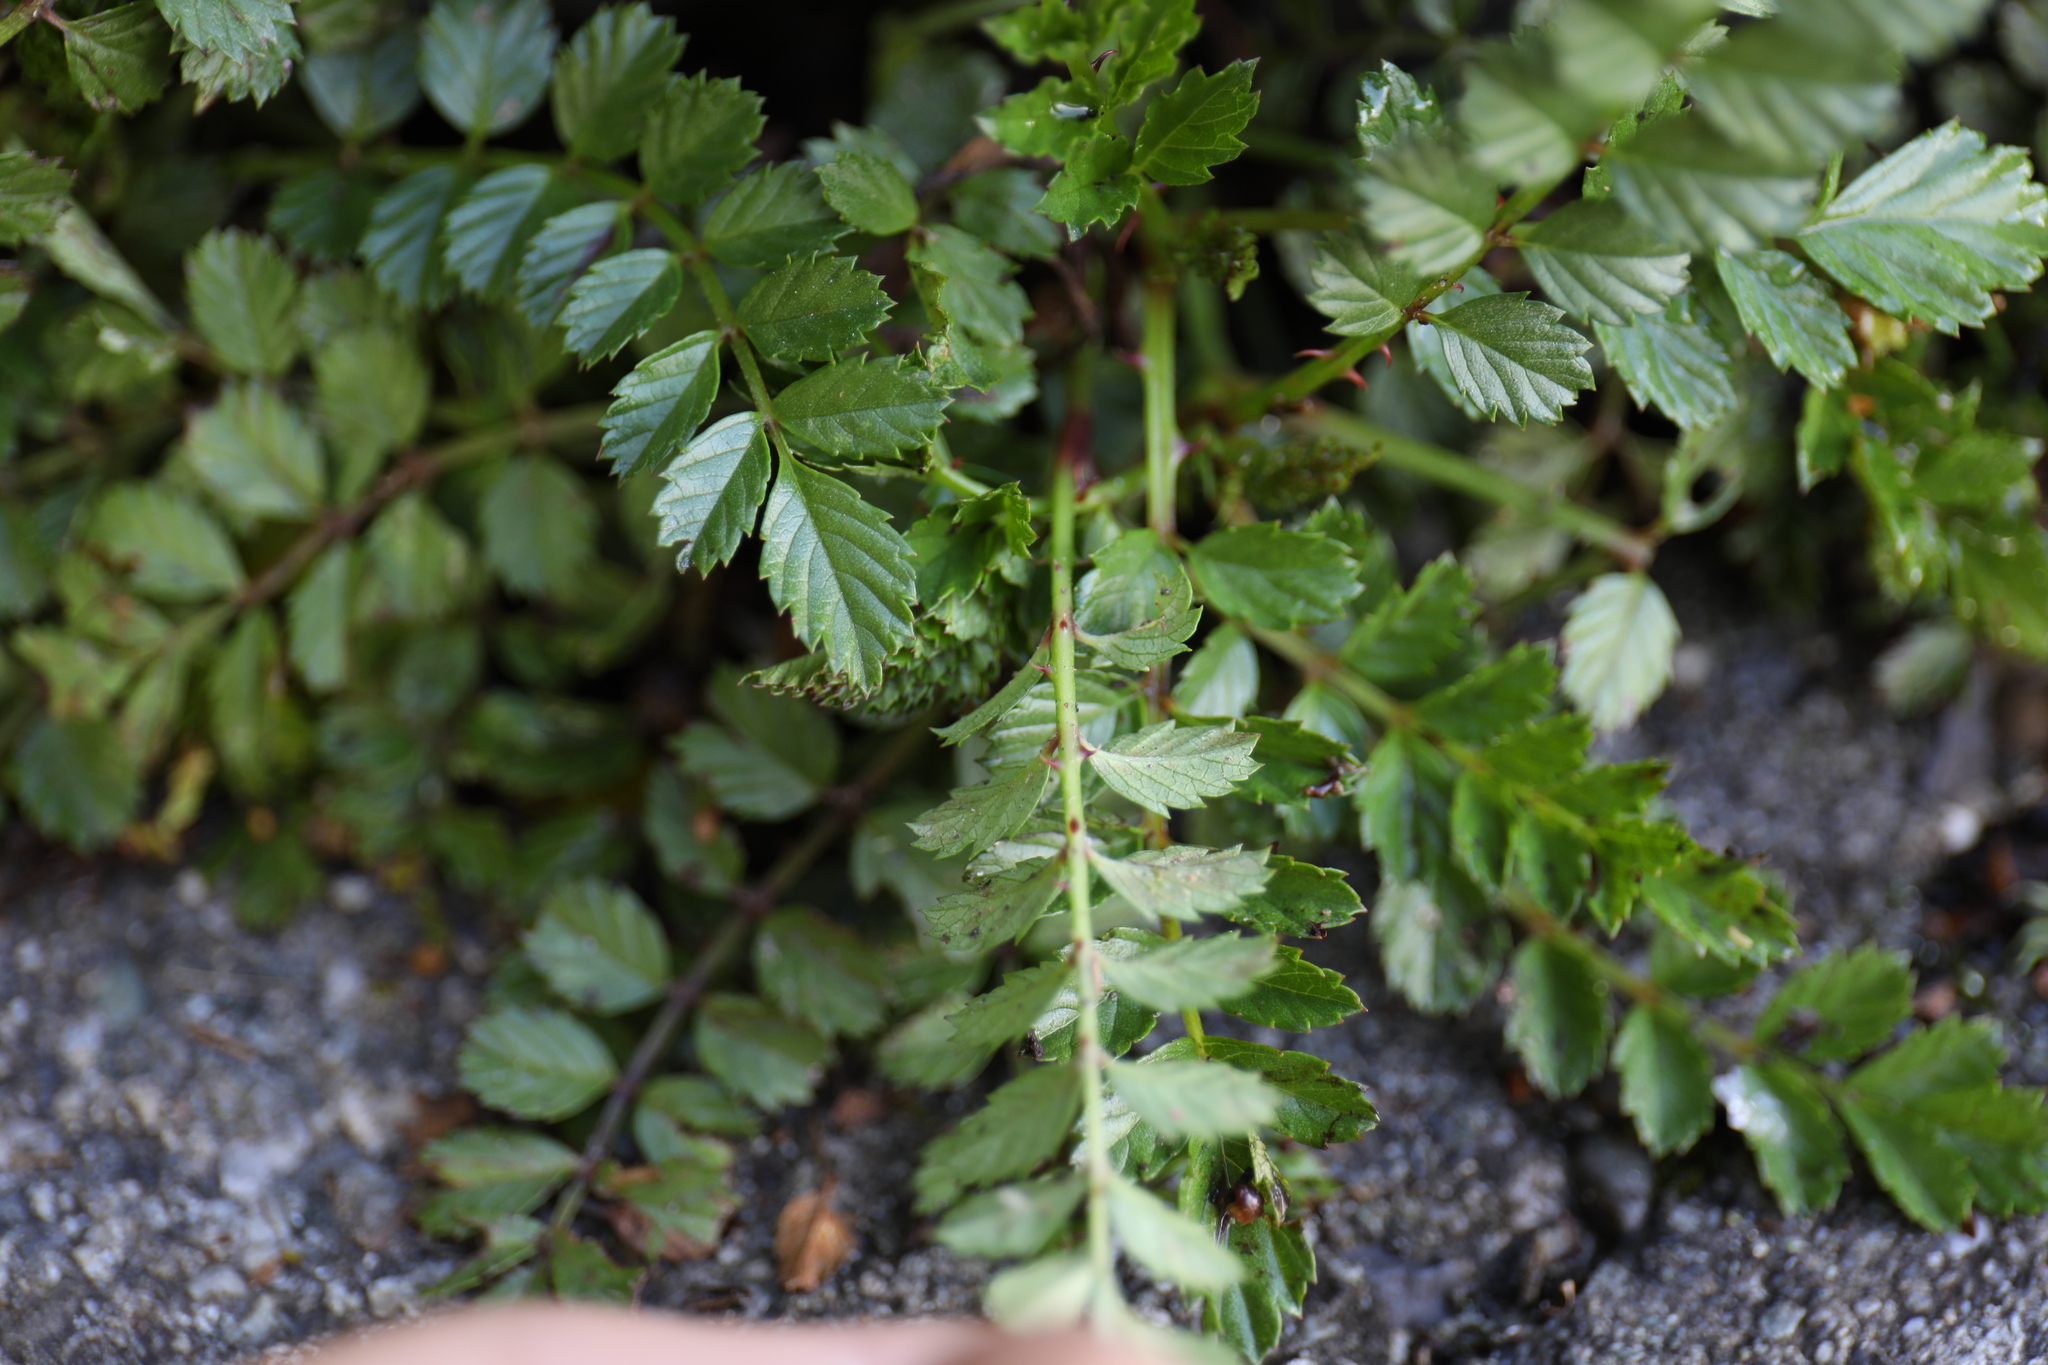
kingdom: Plantae
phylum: Tracheophyta
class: Magnoliopsida
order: Rosales
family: Rosaceae
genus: Rubus
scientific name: Rubus taiwanicola
